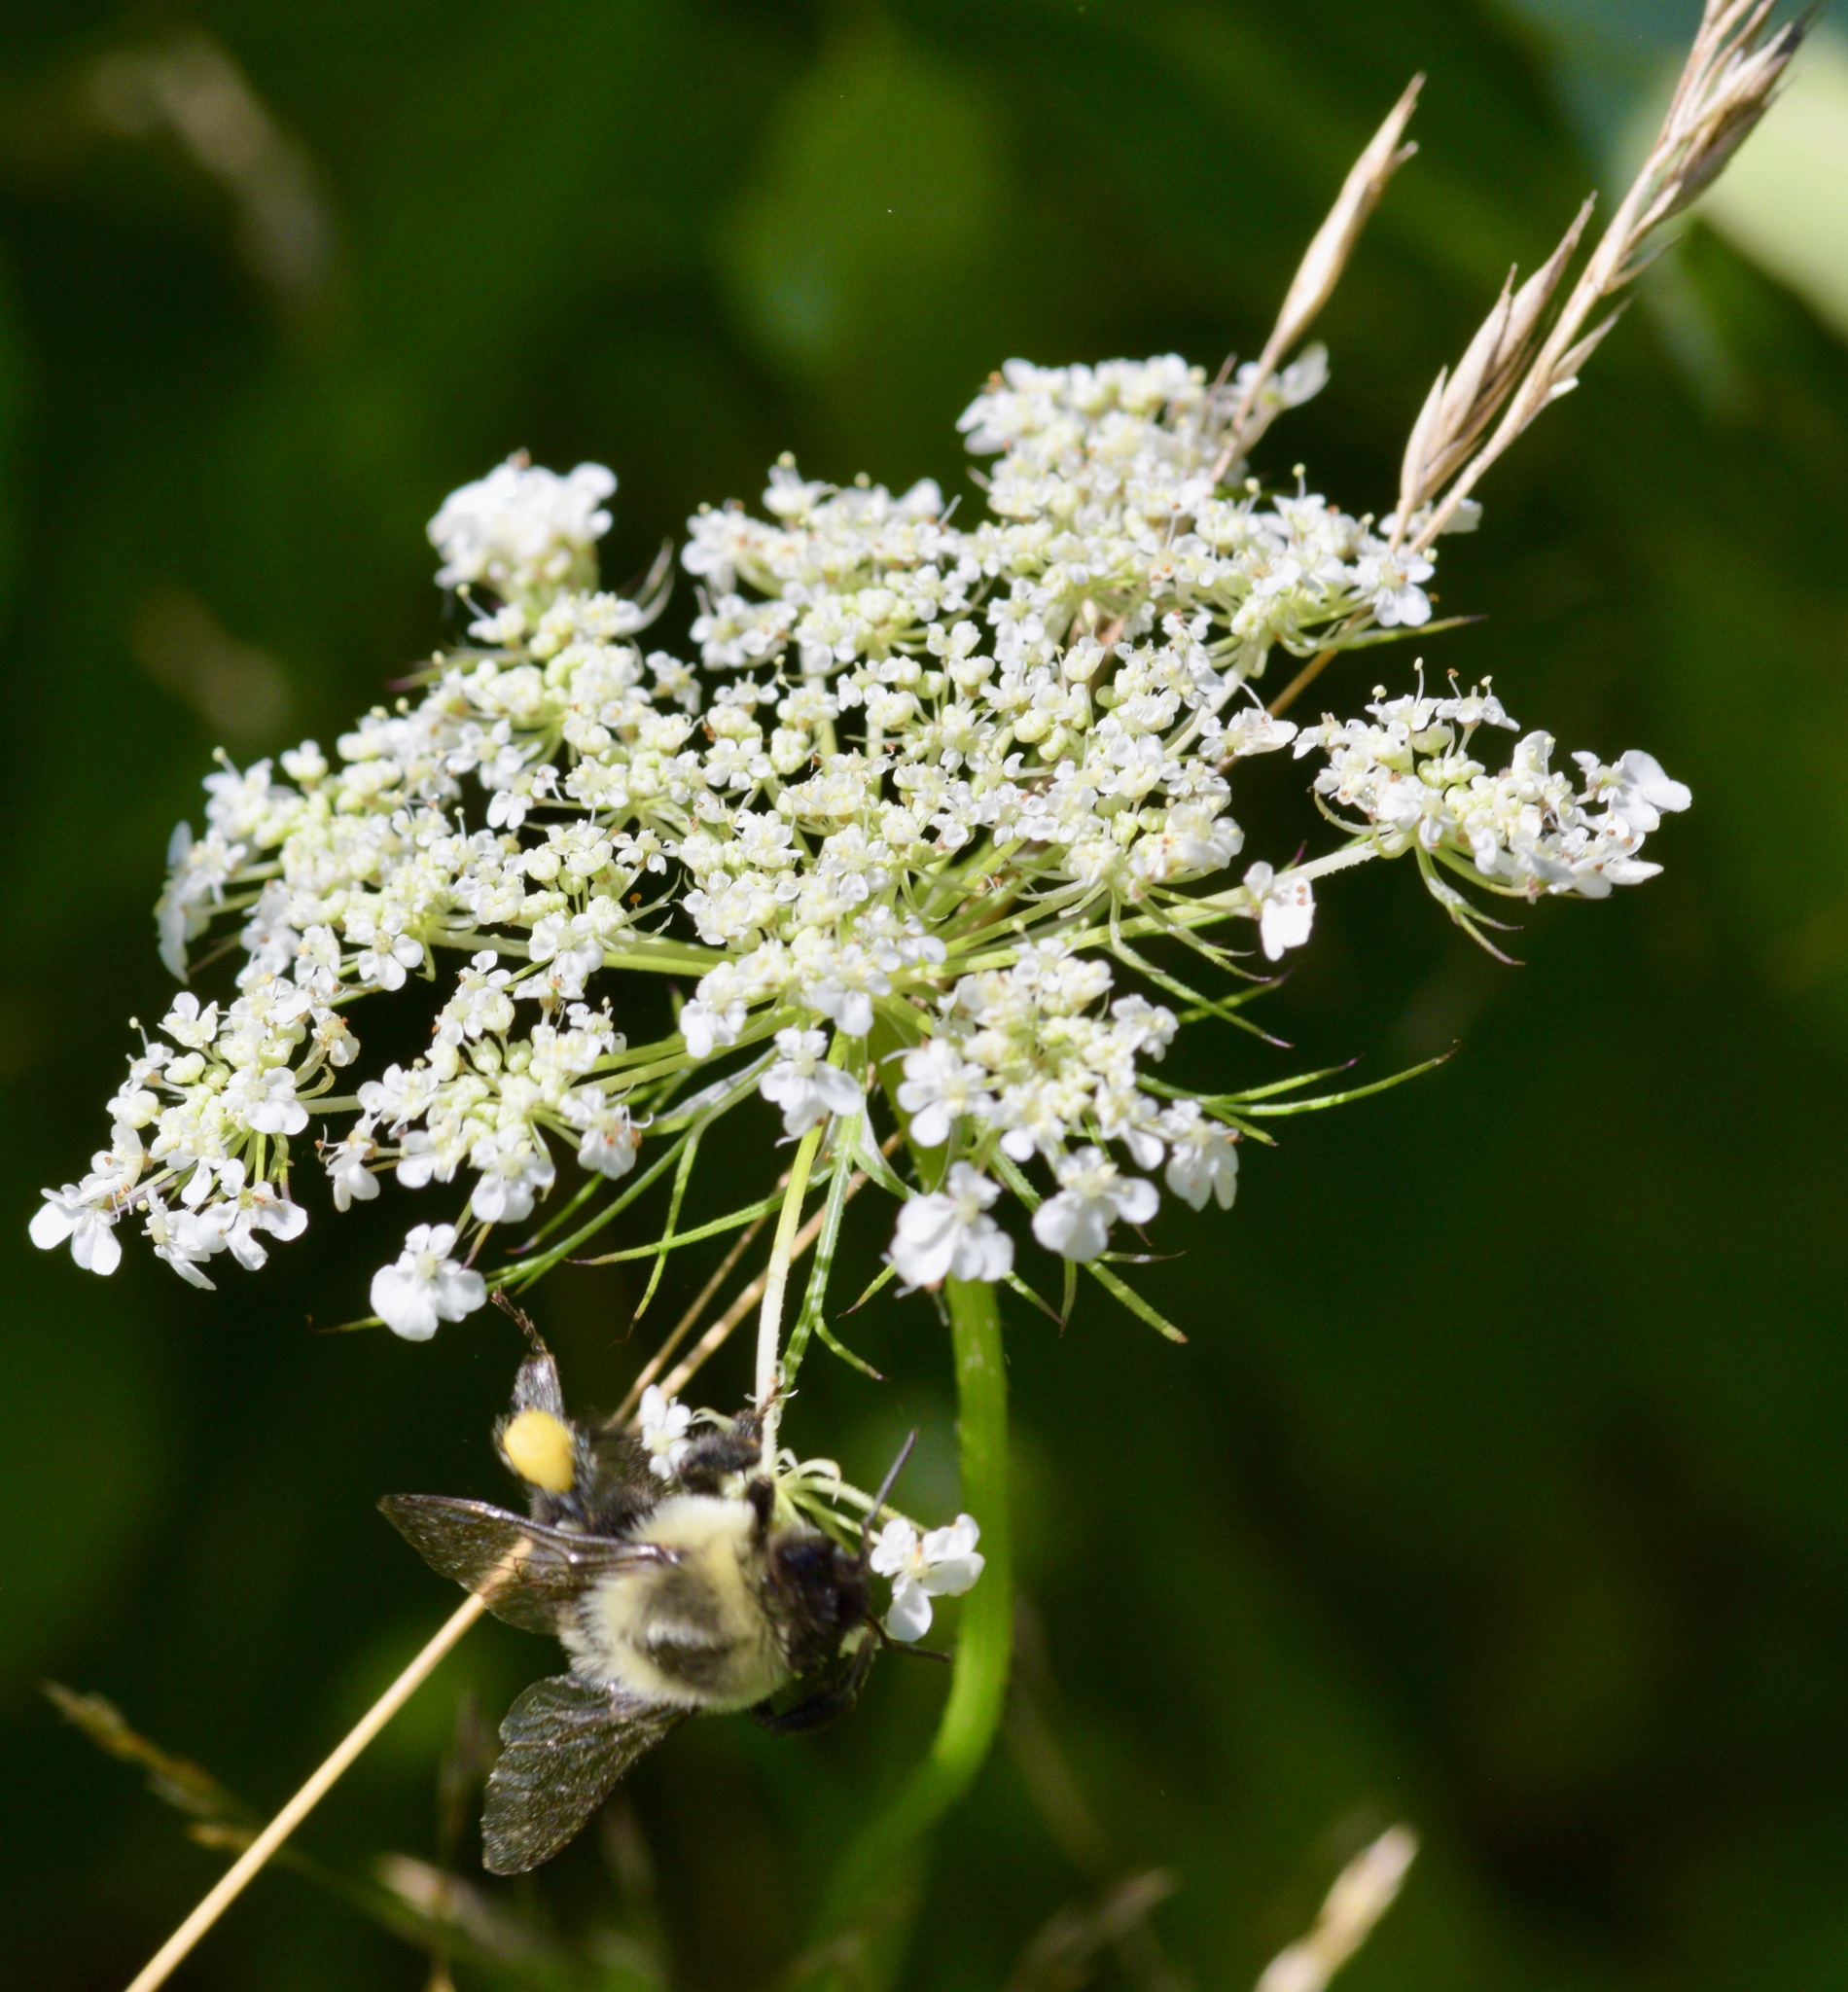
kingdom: Animalia
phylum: Arthropoda
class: Insecta
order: Hymenoptera
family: Apidae
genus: Bombus
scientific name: Bombus impatiens
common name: Common eastern bumble bee
